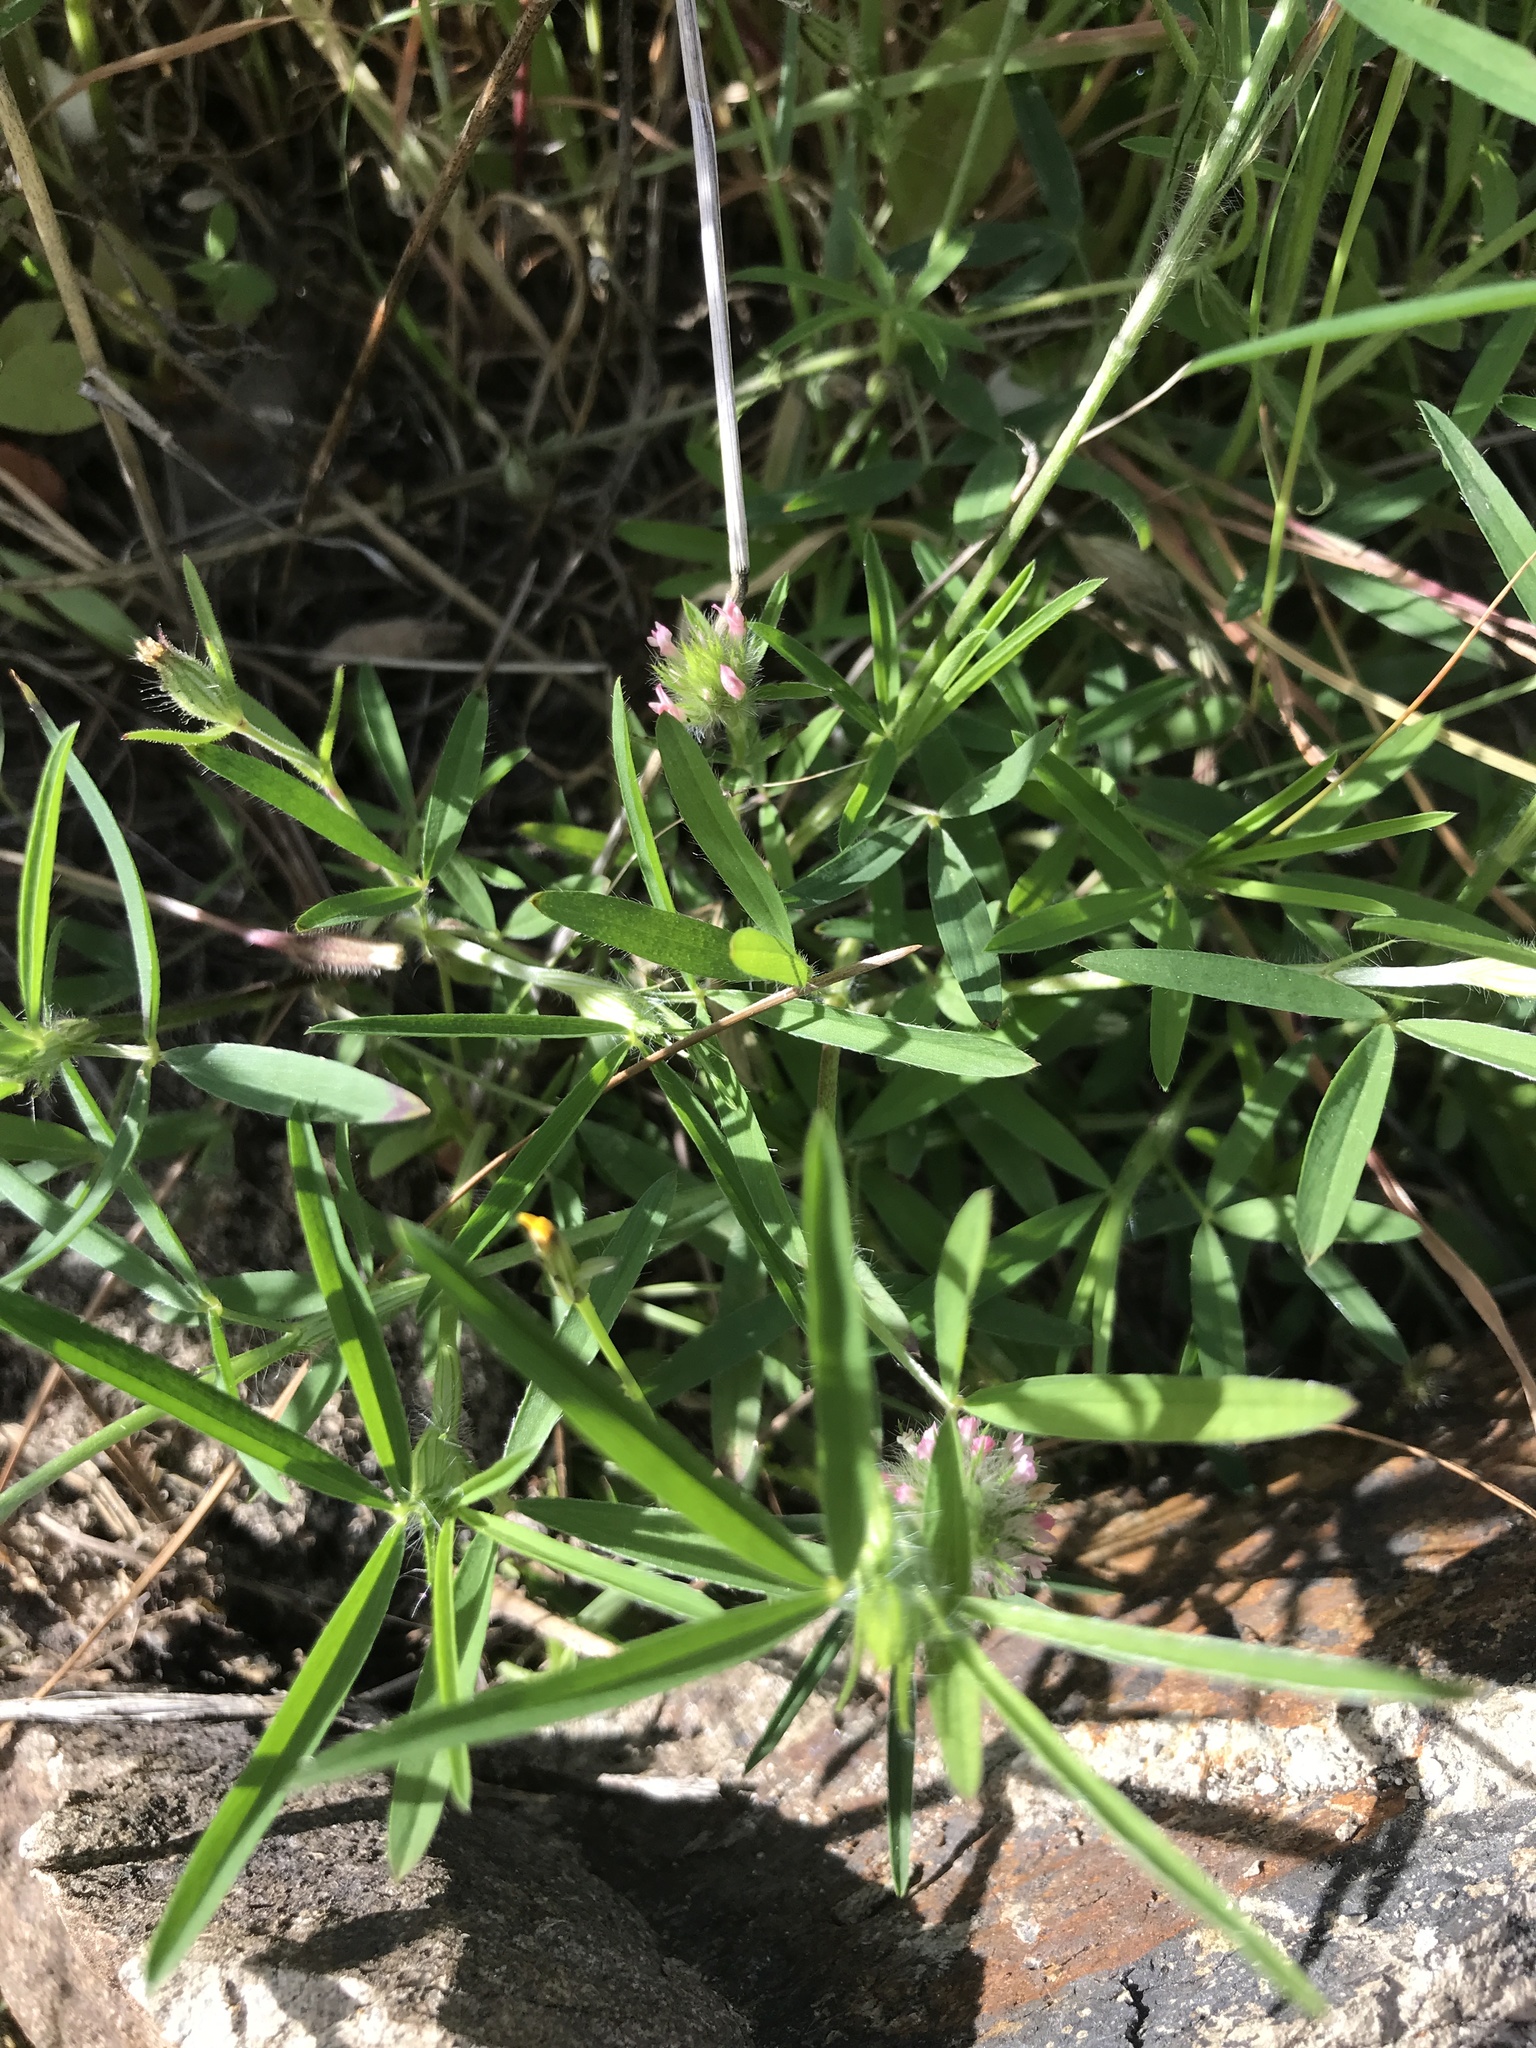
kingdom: Plantae
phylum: Tracheophyta
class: Magnoliopsida
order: Fabales
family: Fabaceae
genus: Trifolium
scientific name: Trifolium angustifolium
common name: Narrow clover
